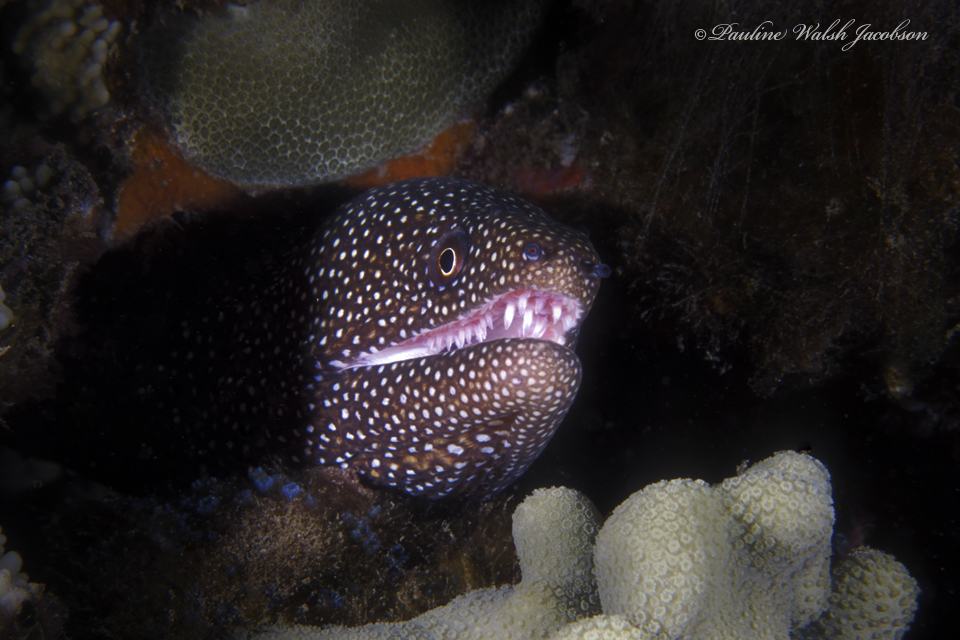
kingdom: Animalia
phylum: Chordata
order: Anguilliformes
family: Muraenidae
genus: Gymnothorax
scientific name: Gymnothorax meleagris
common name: Guineafowl moray
